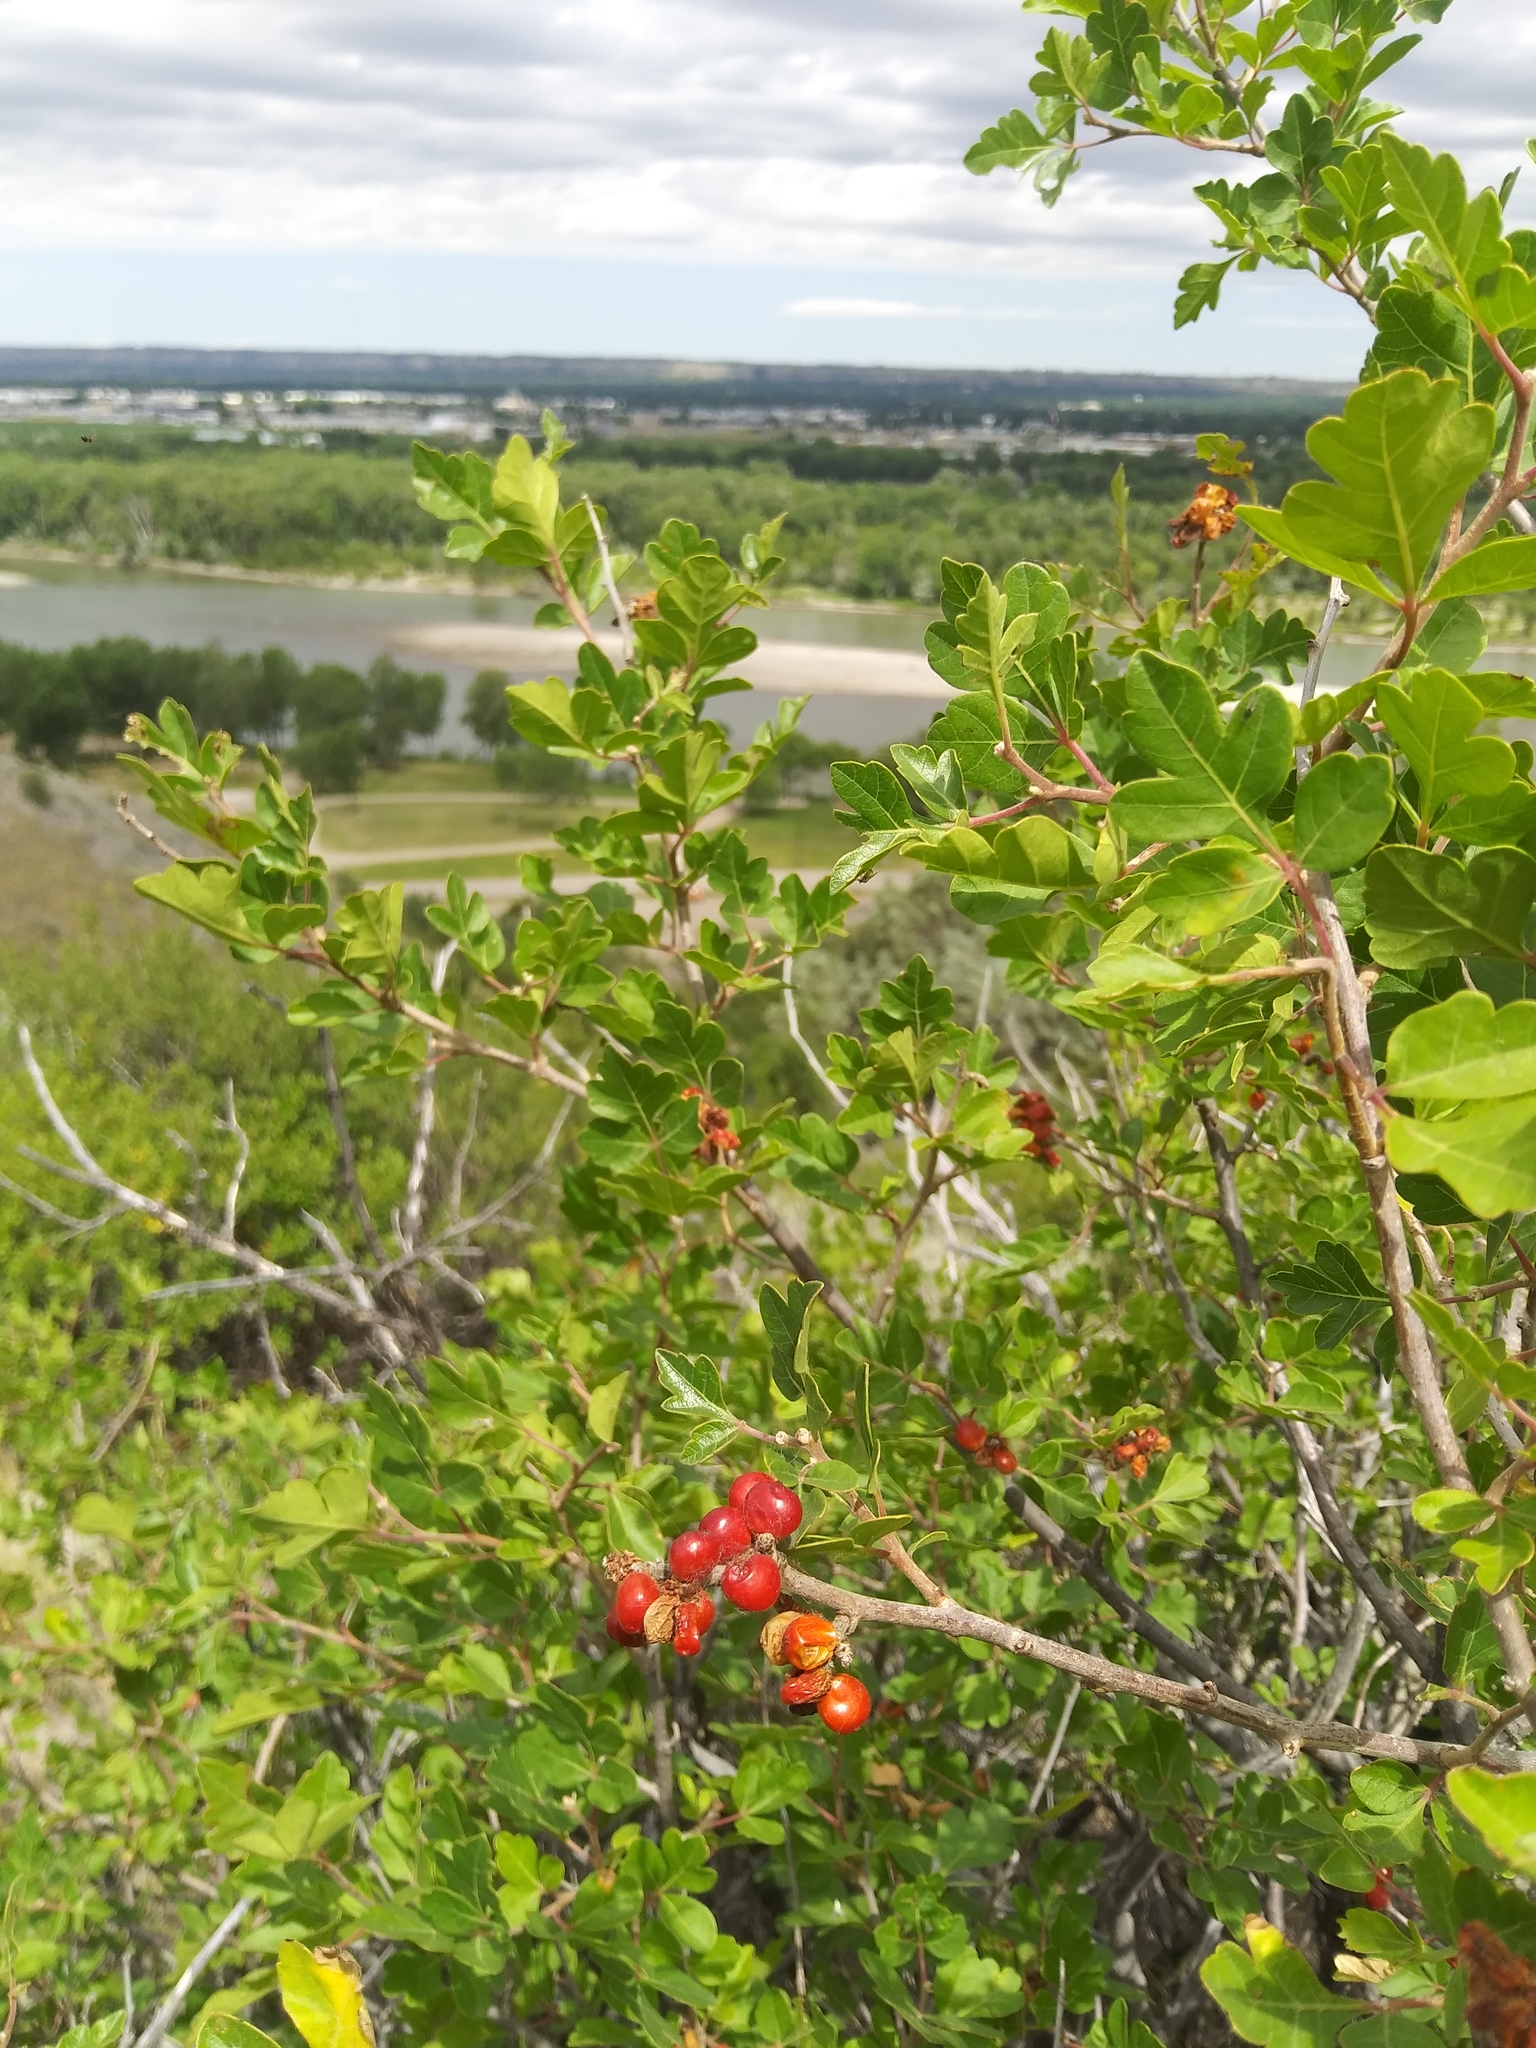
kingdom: Plantae
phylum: Tracheophyta
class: Magnoliopsida
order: Sapindales
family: Anacardiaceae
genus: Rhus
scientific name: Rhus aromatica
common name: Aromatic sumac
